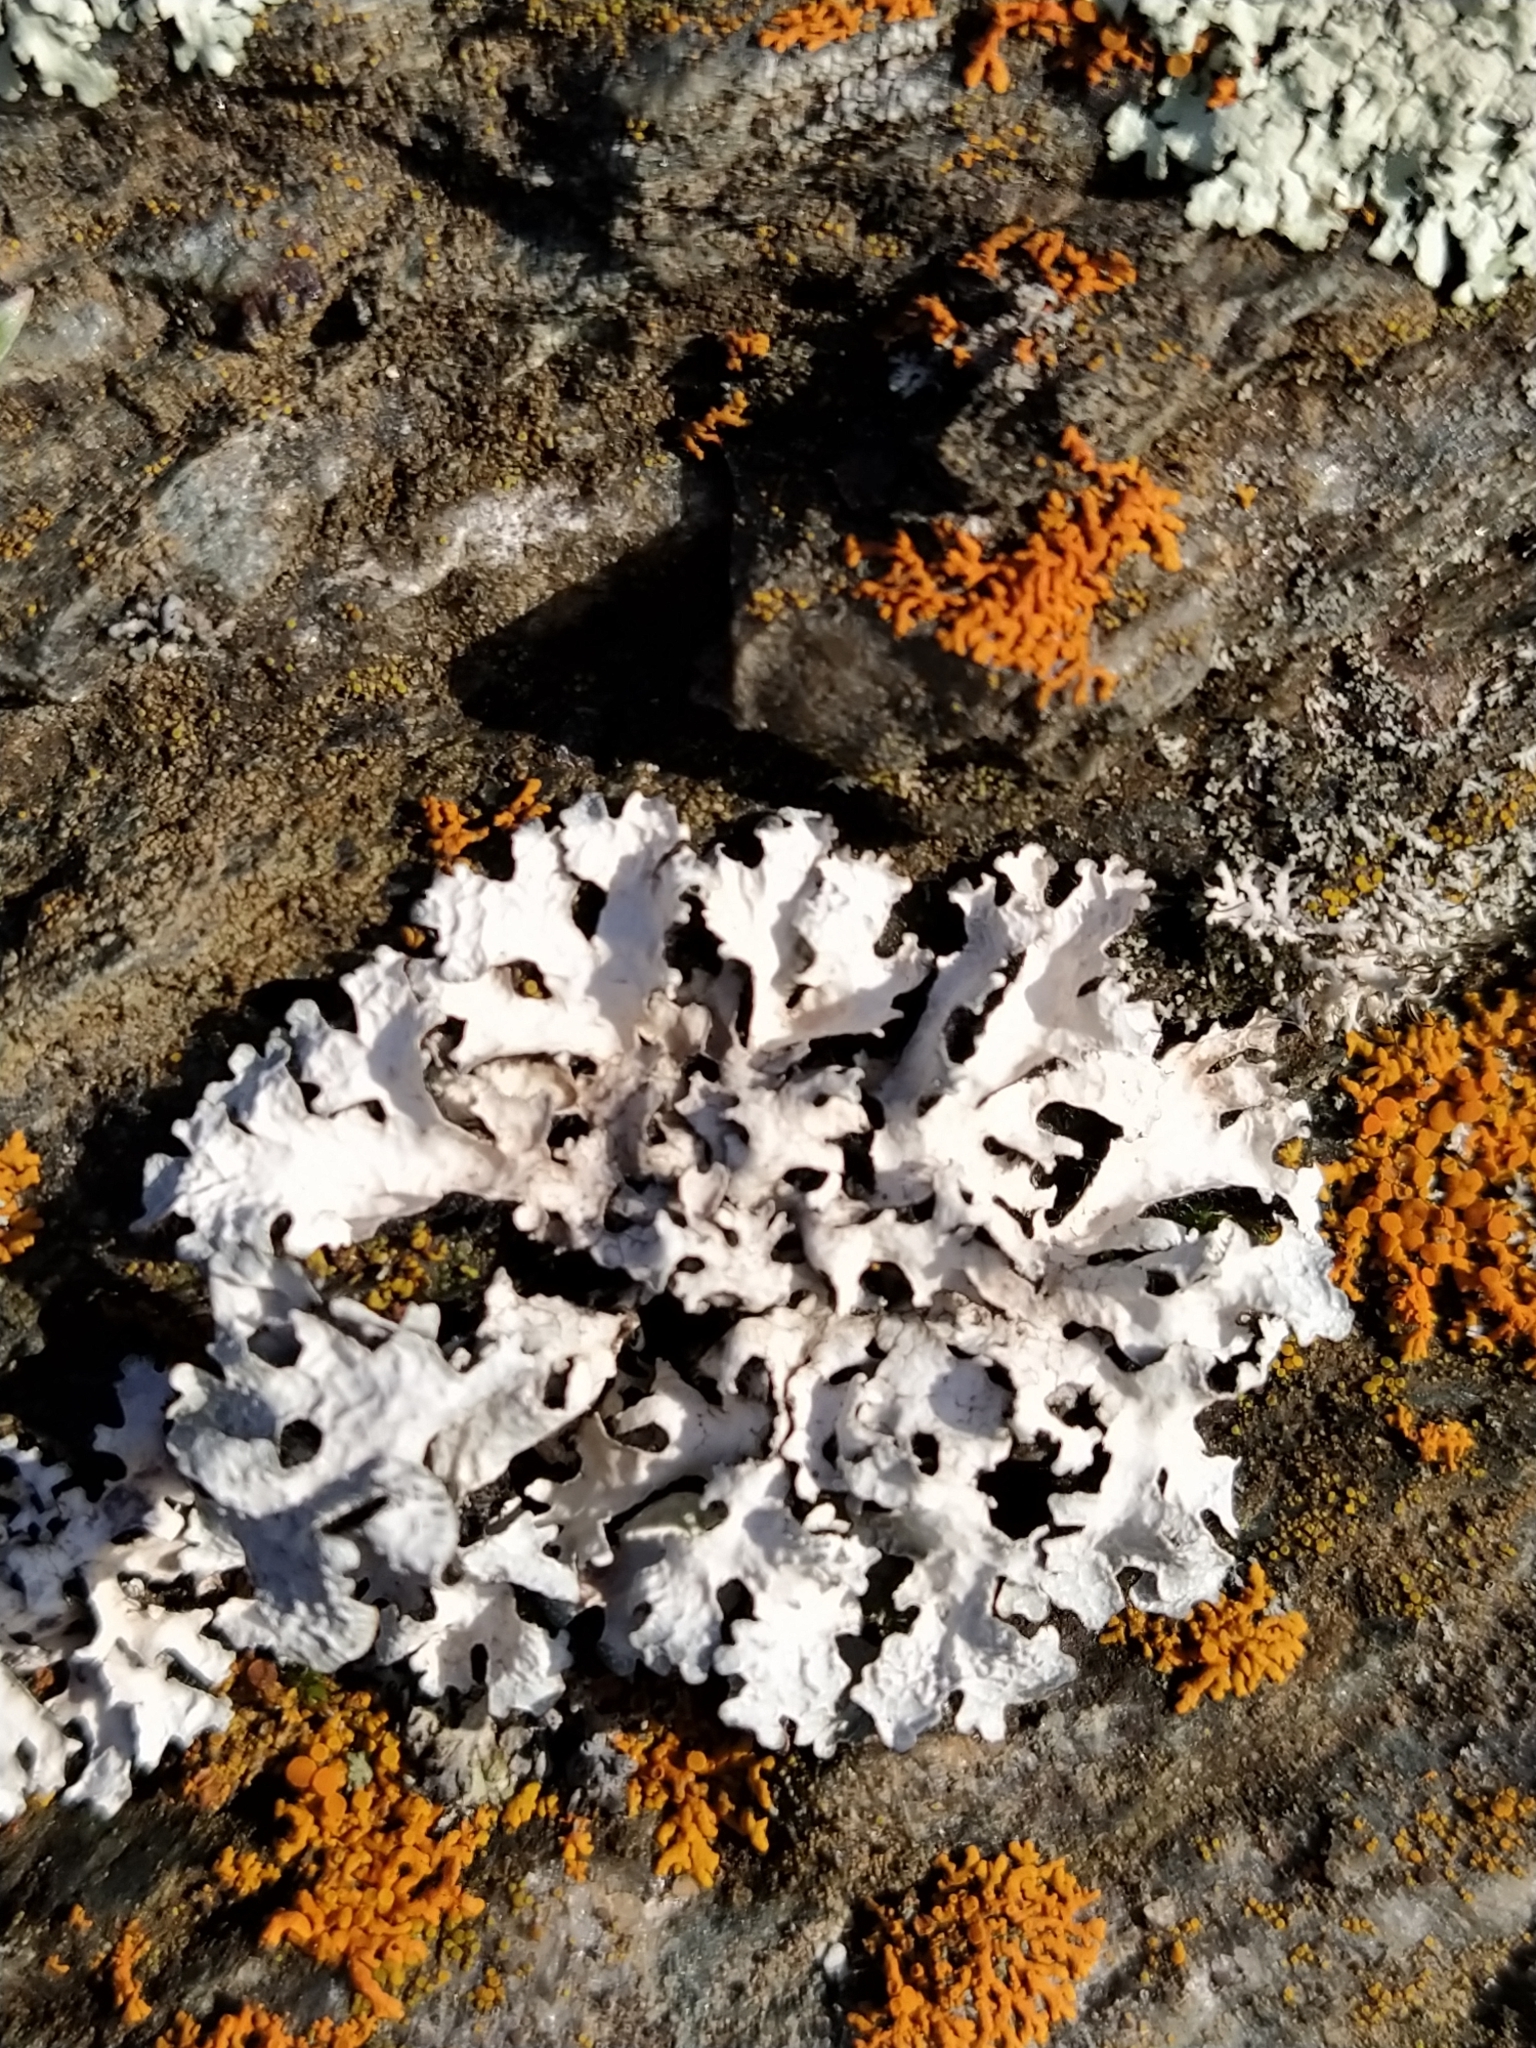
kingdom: Fungi
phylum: Ascomycota
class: Lecanoromycetes
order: Lecanorales
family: Parmeliaceae
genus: Parmelia
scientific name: Parmelia sulcata
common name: Netted shield lichen
